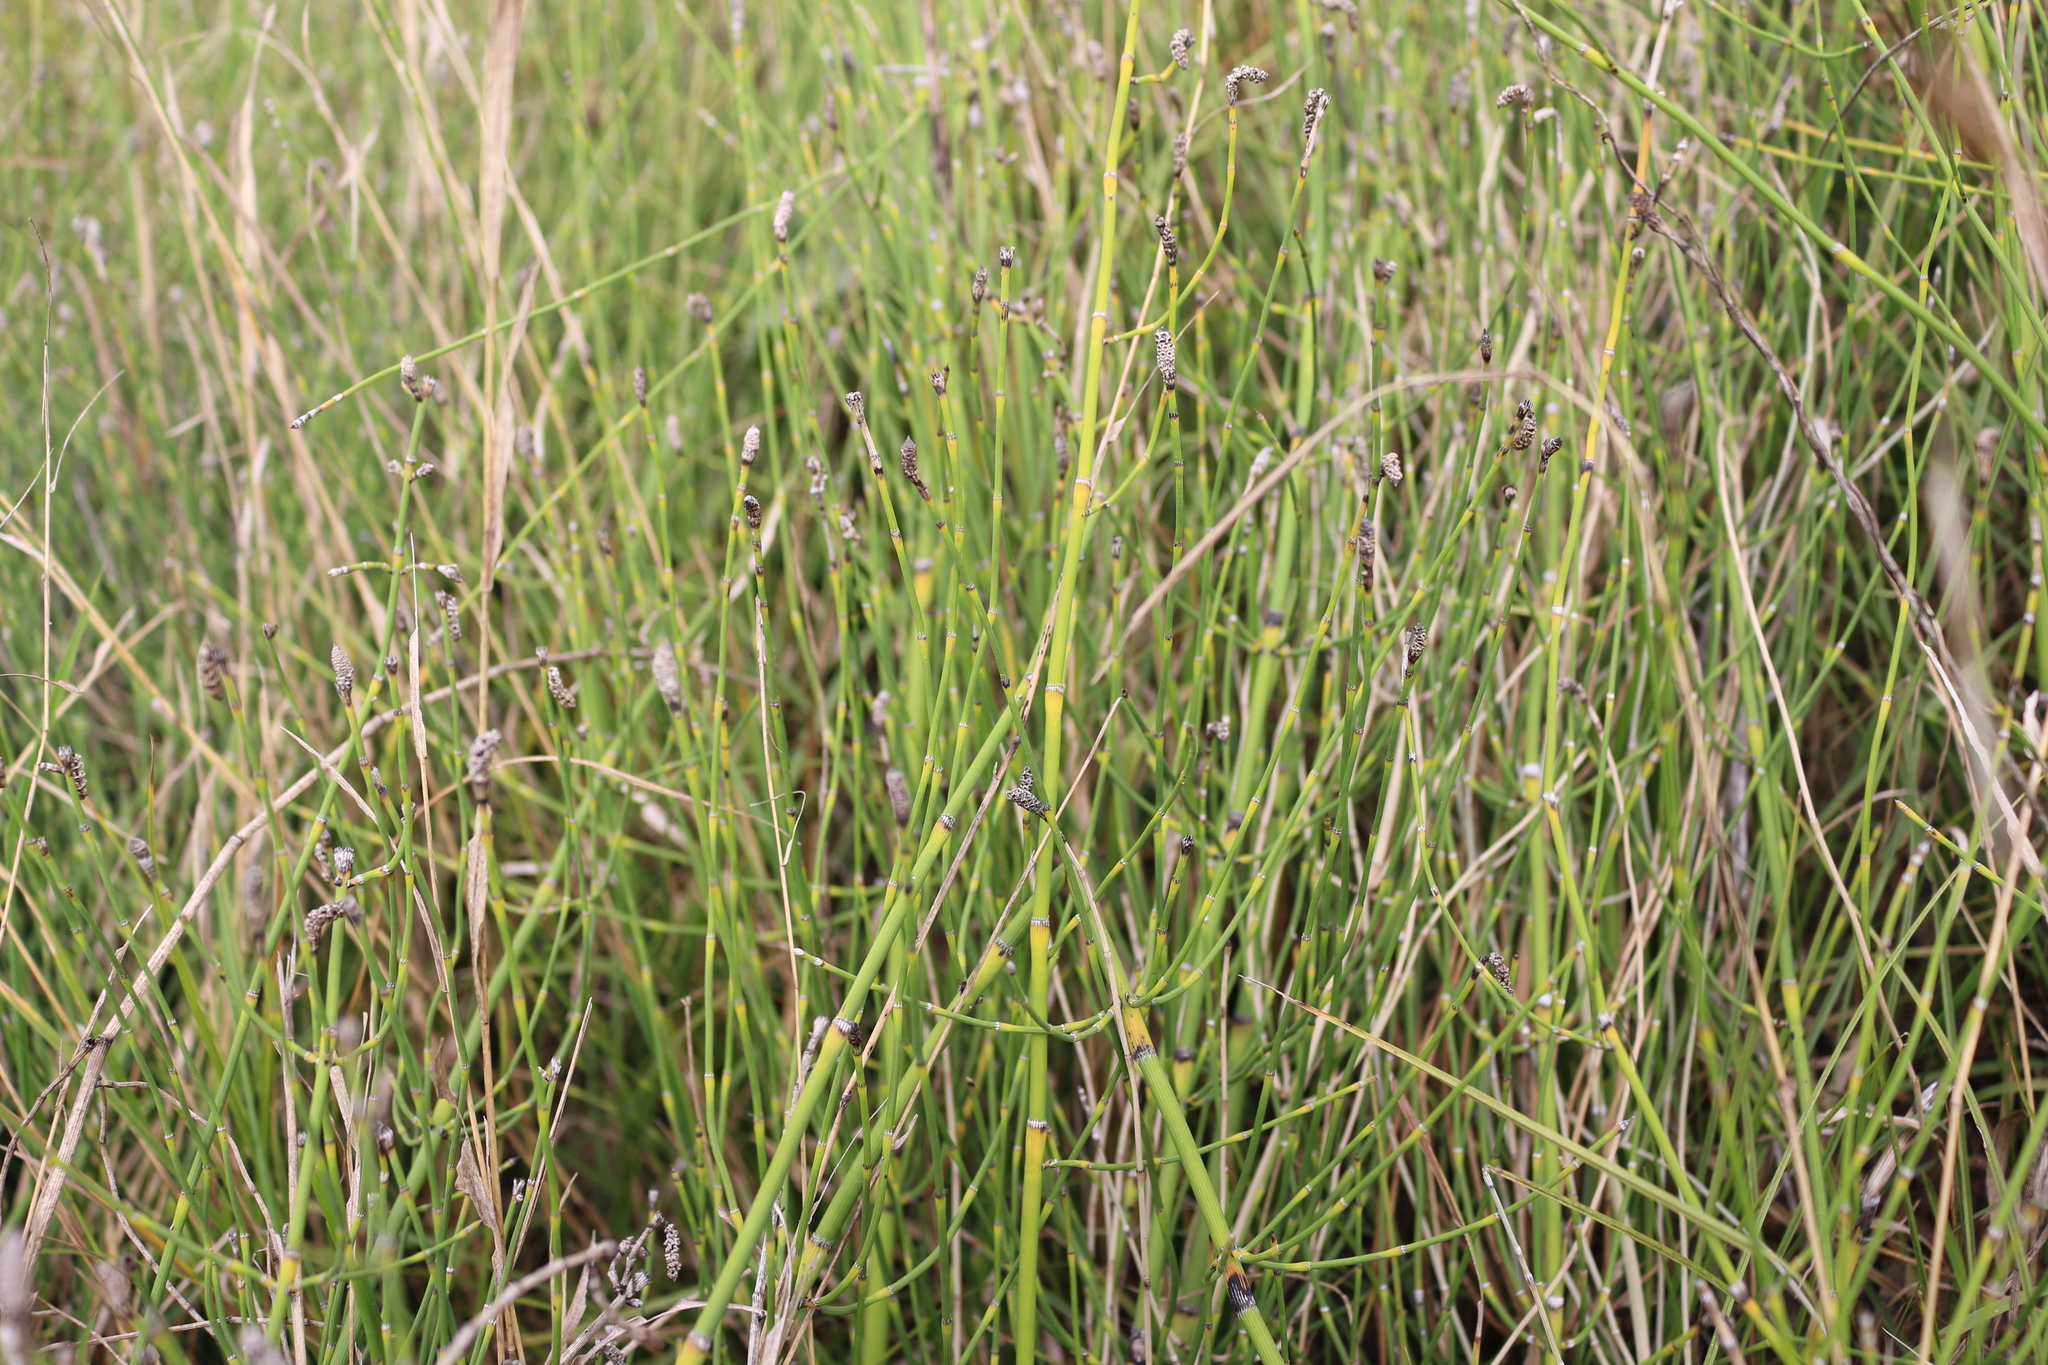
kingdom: Plantae
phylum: Tracheophyta
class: Polypodiopsida
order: Equisetales
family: Equisetaceae
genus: Equisetum
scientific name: Equisetum ramosissimum
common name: Branched horsetail
